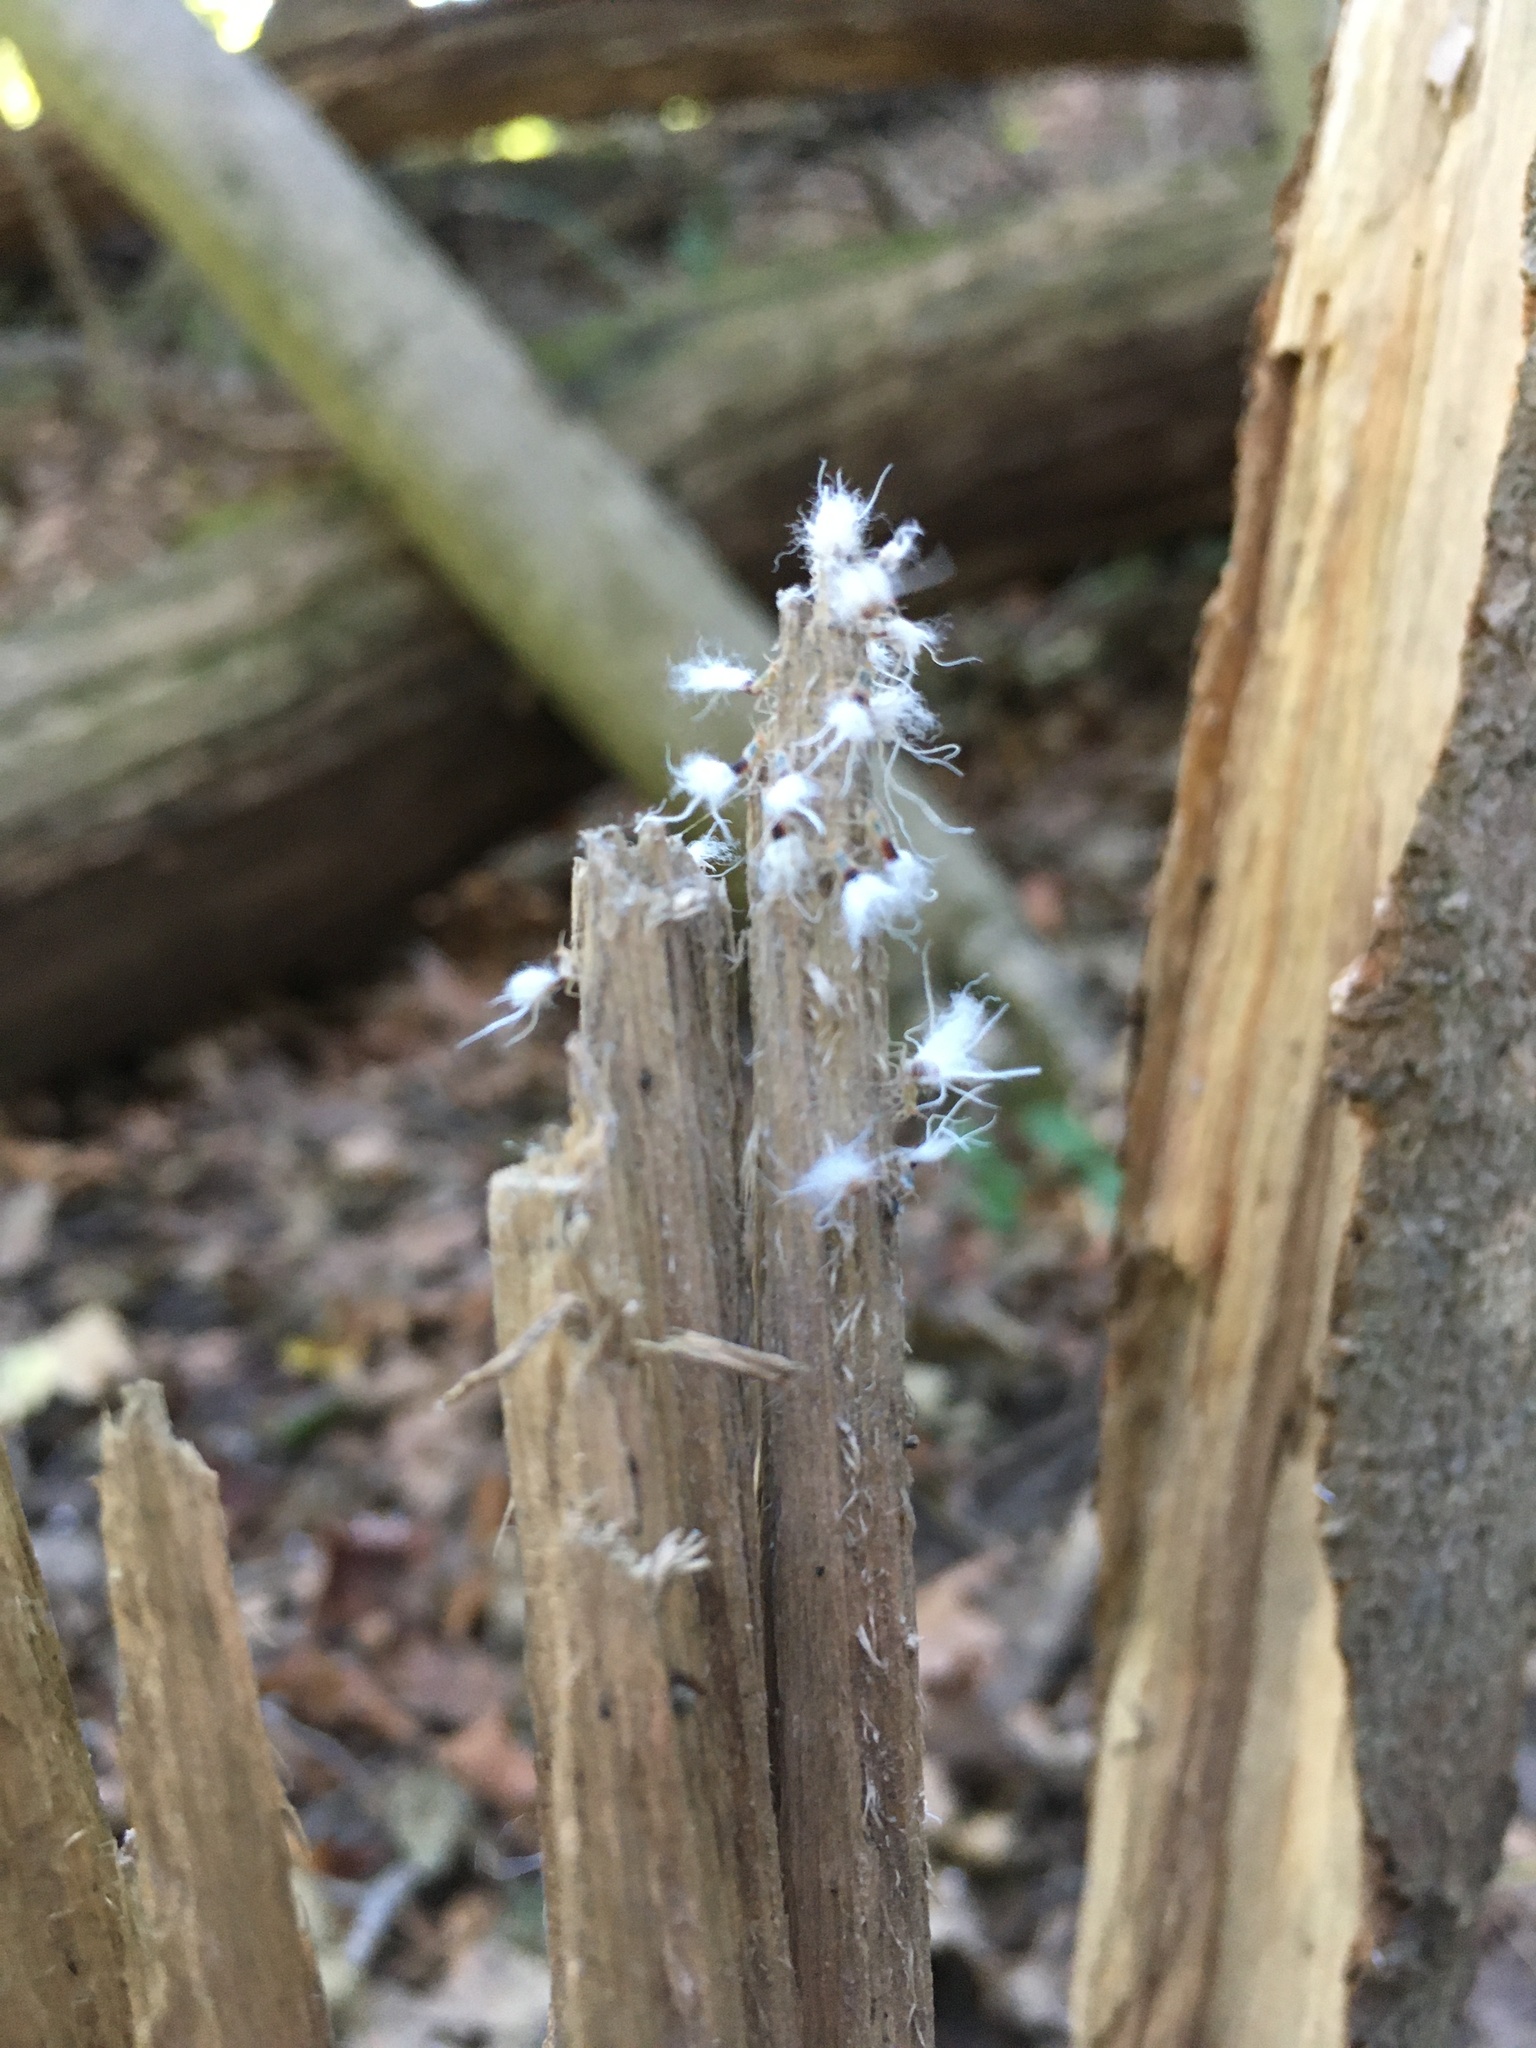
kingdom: Animalia
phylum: Arthropoda
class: Insecta
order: Hemiptera
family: Aphididae
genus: Grylloprociphilus
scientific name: Grylloprociphilus imbricator
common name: Beech blight aphid
